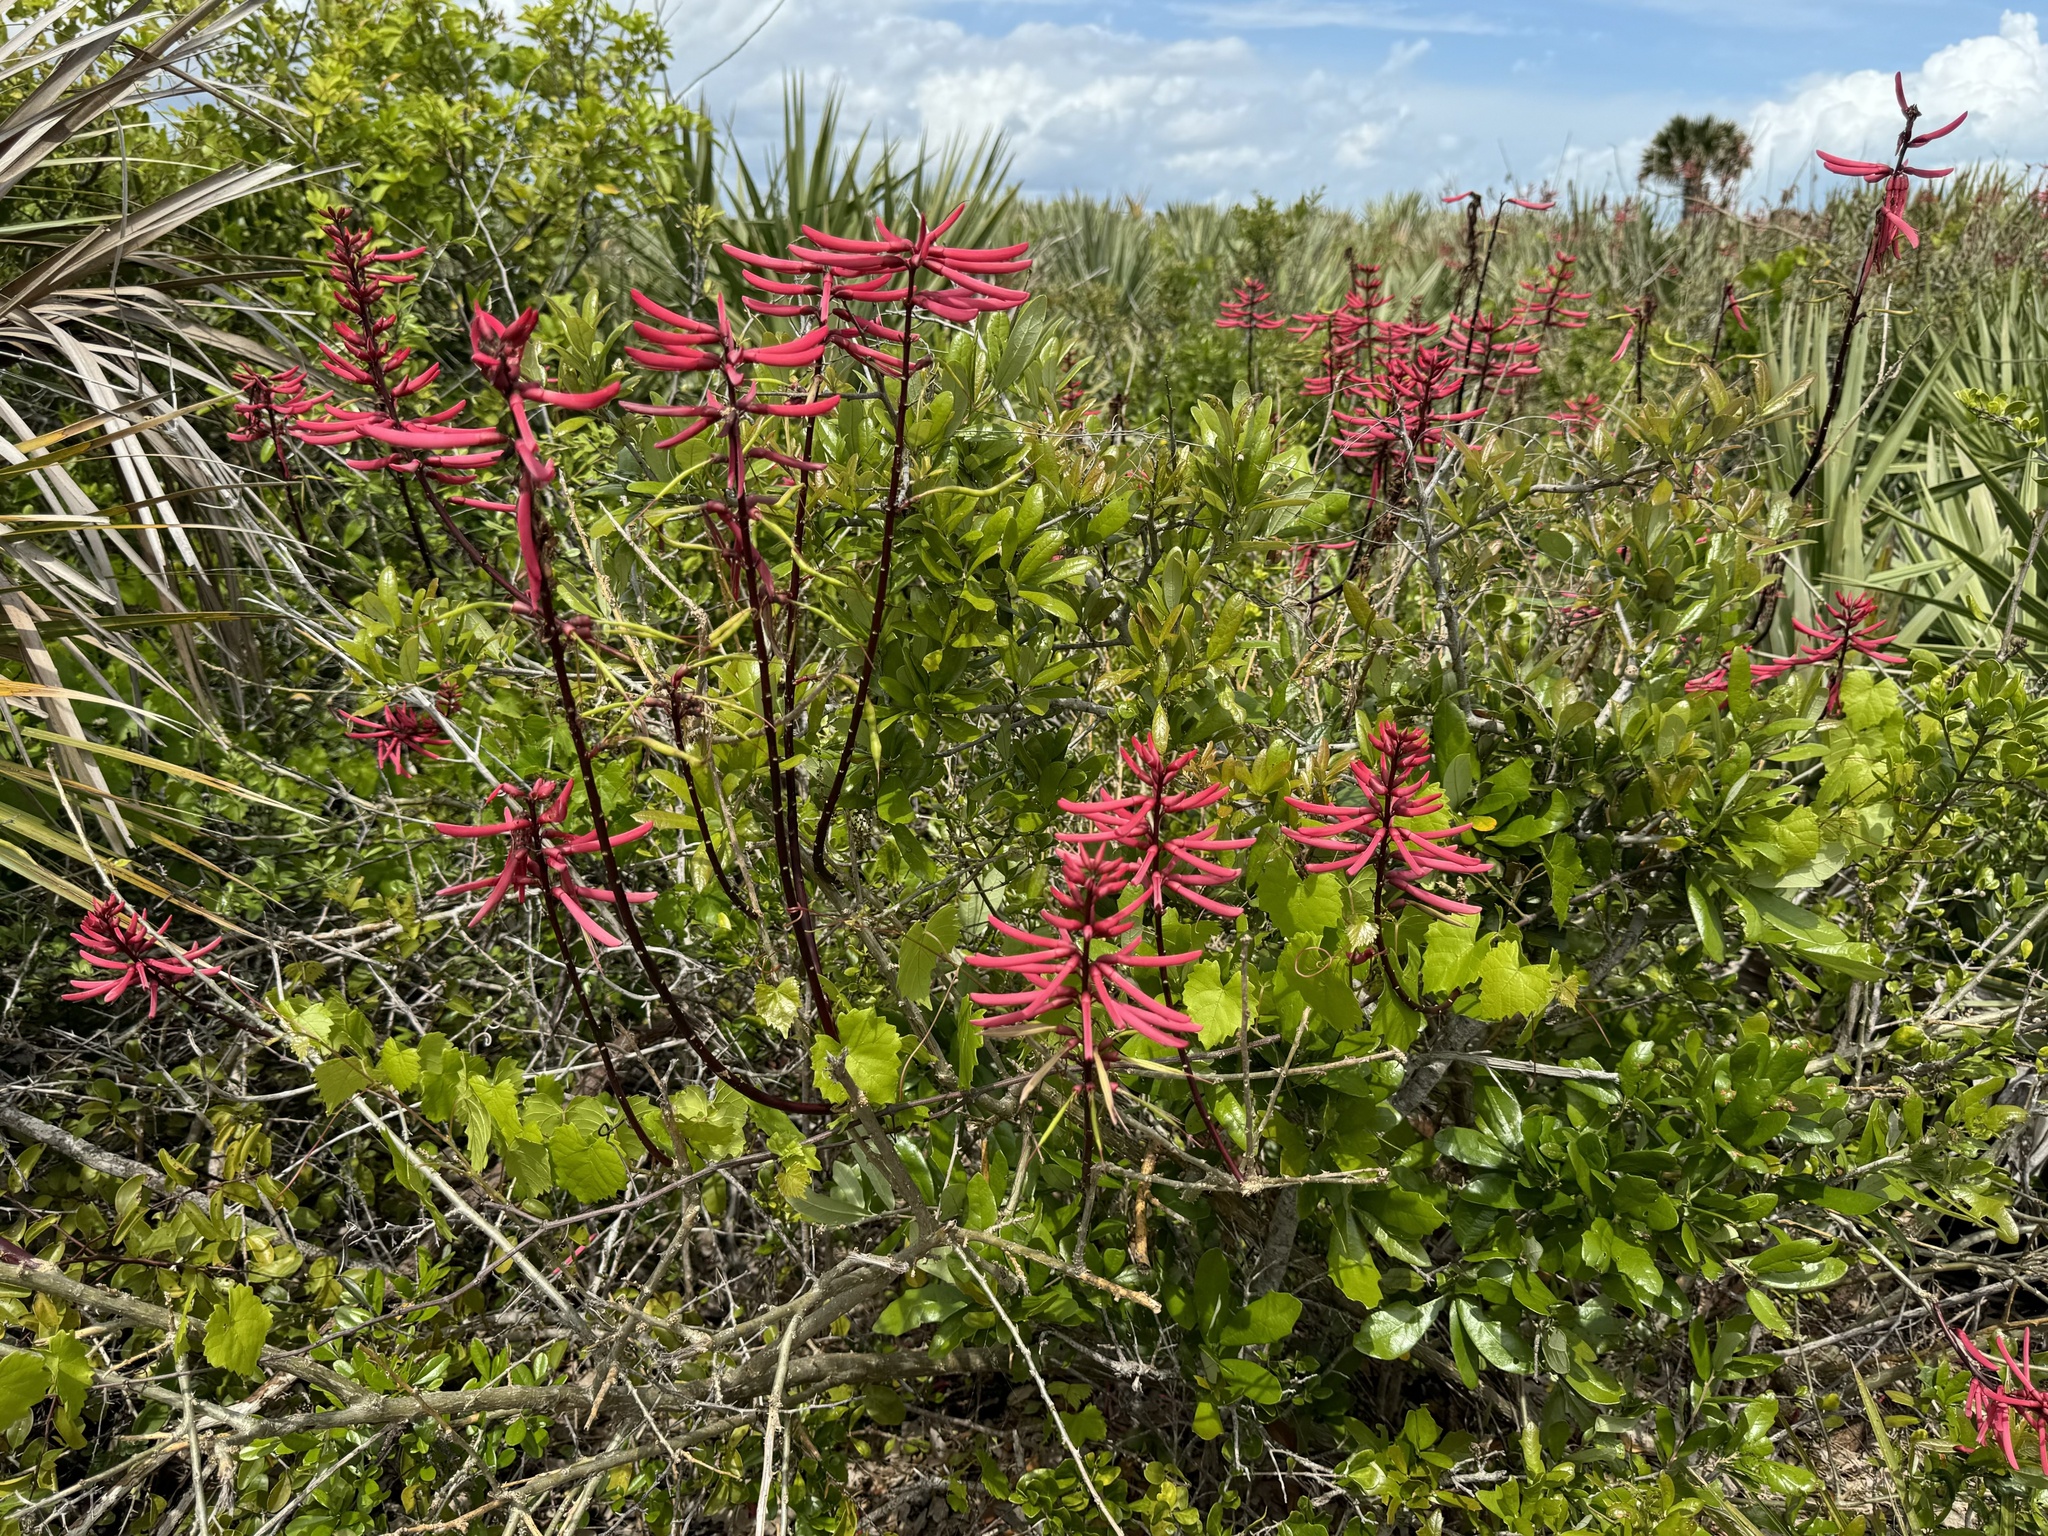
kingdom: Plantae
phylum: Tracheophyta
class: Magnoliopsida
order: Fabales
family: Fabaceae
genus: Erythrina
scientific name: Erythrina herbacea
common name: Coral-bean
